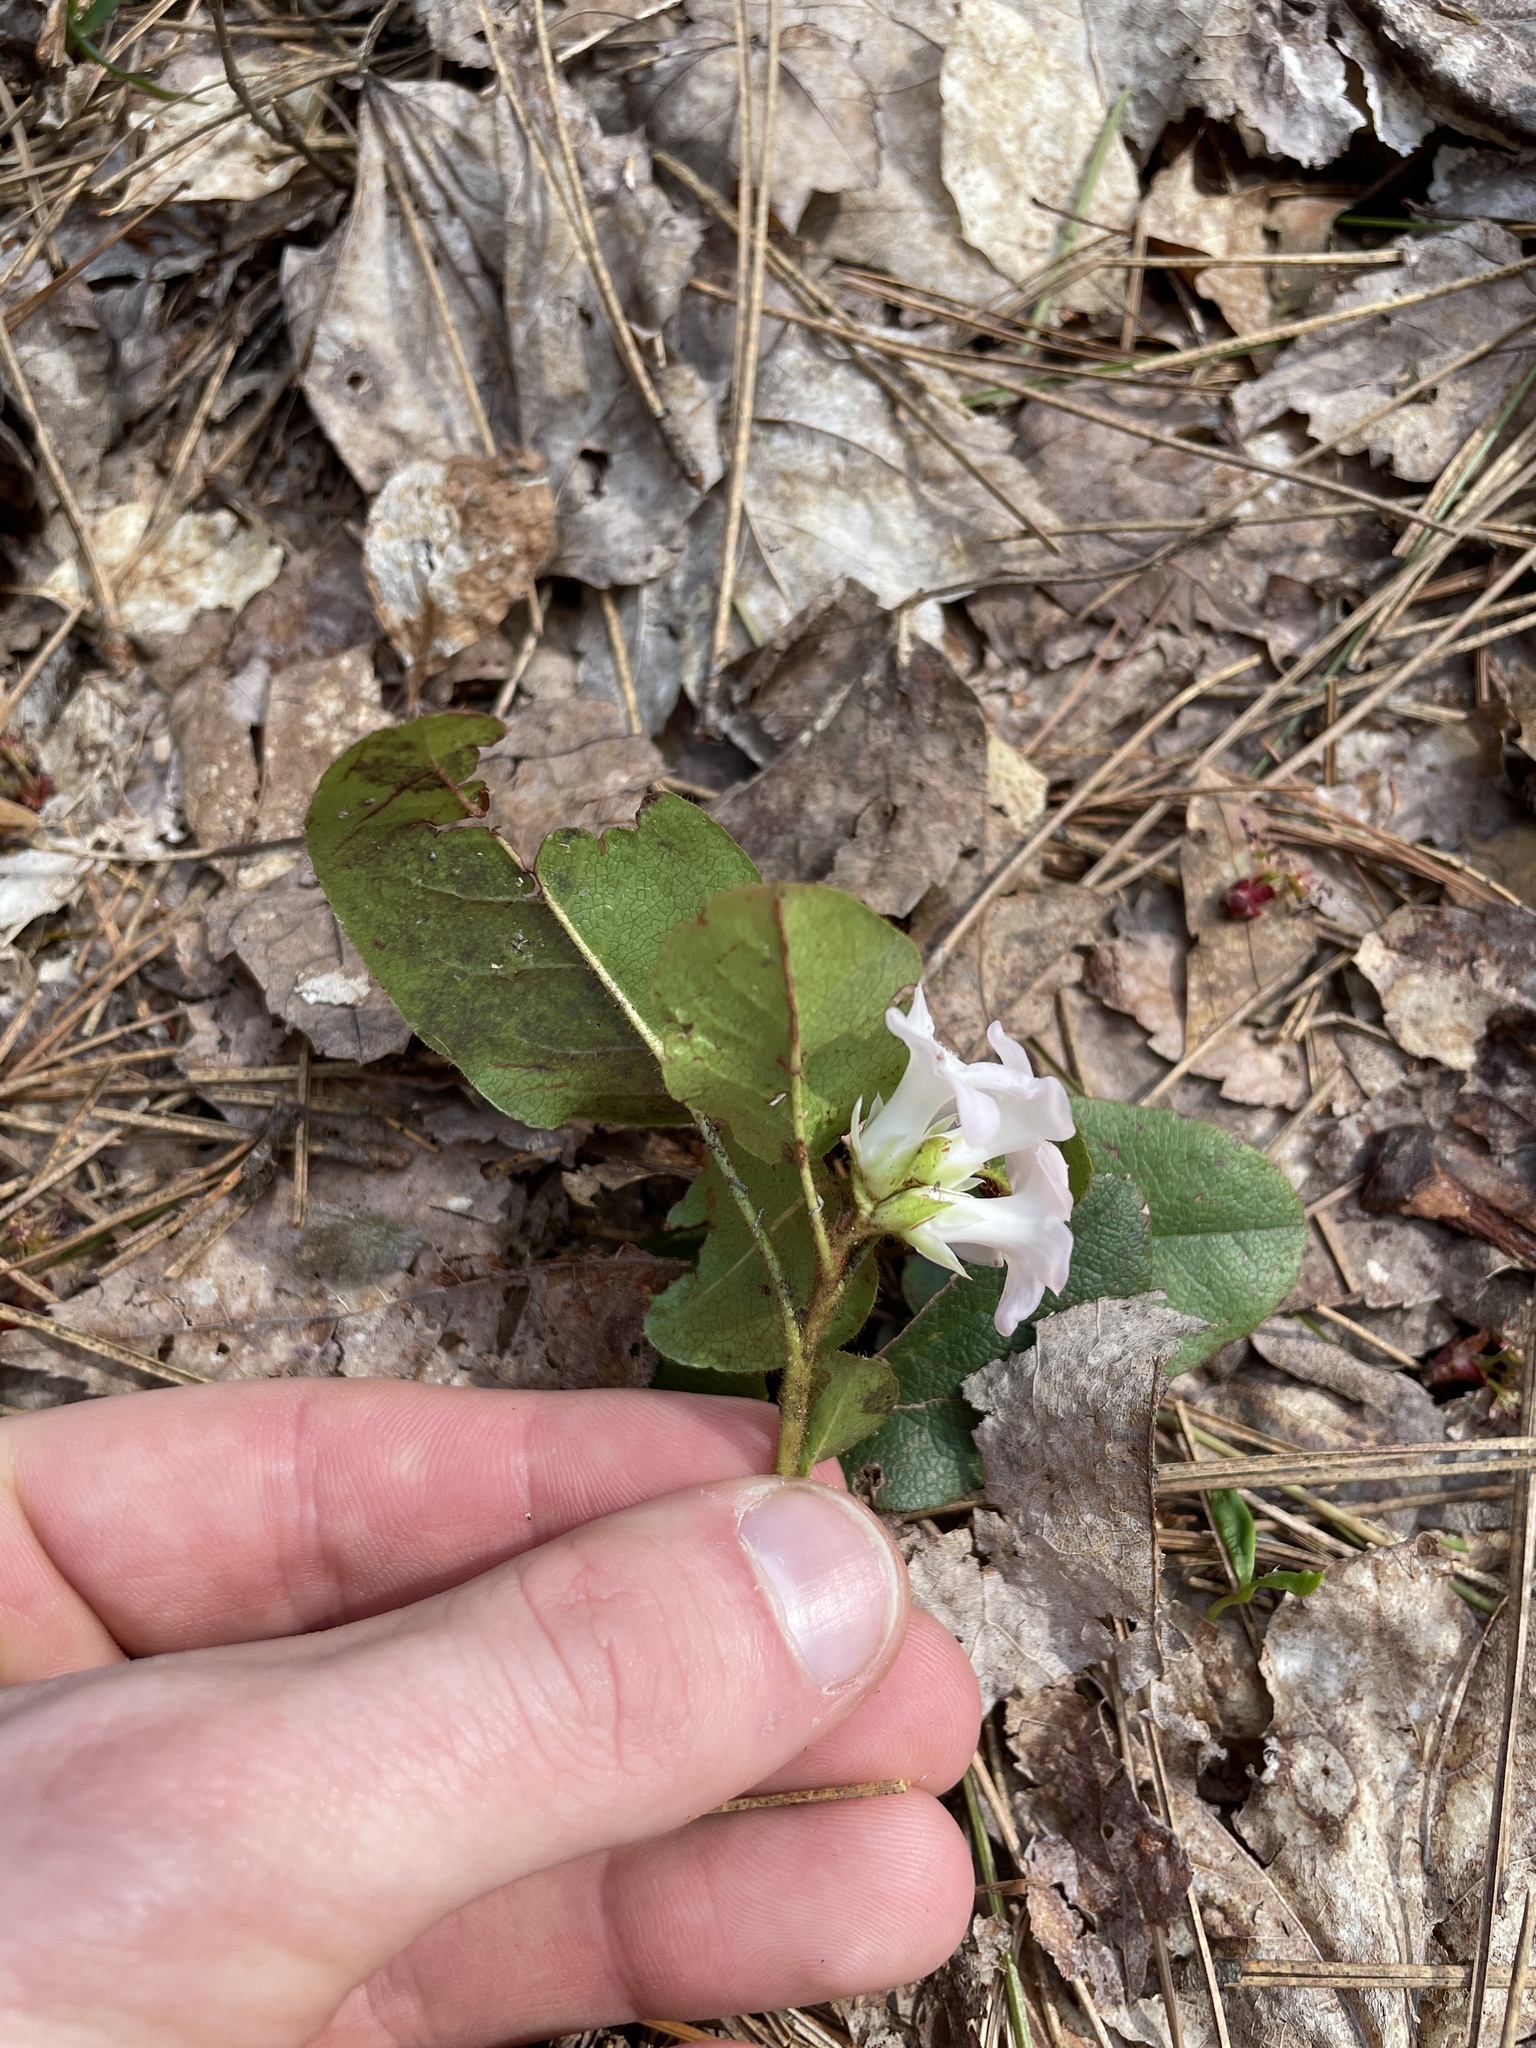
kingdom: Plantae
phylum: Tracheophyta
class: Magnoliopsida
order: Ericales
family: Ericaceae
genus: Epigaea
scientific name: Epigaea repens
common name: Gravelroot
